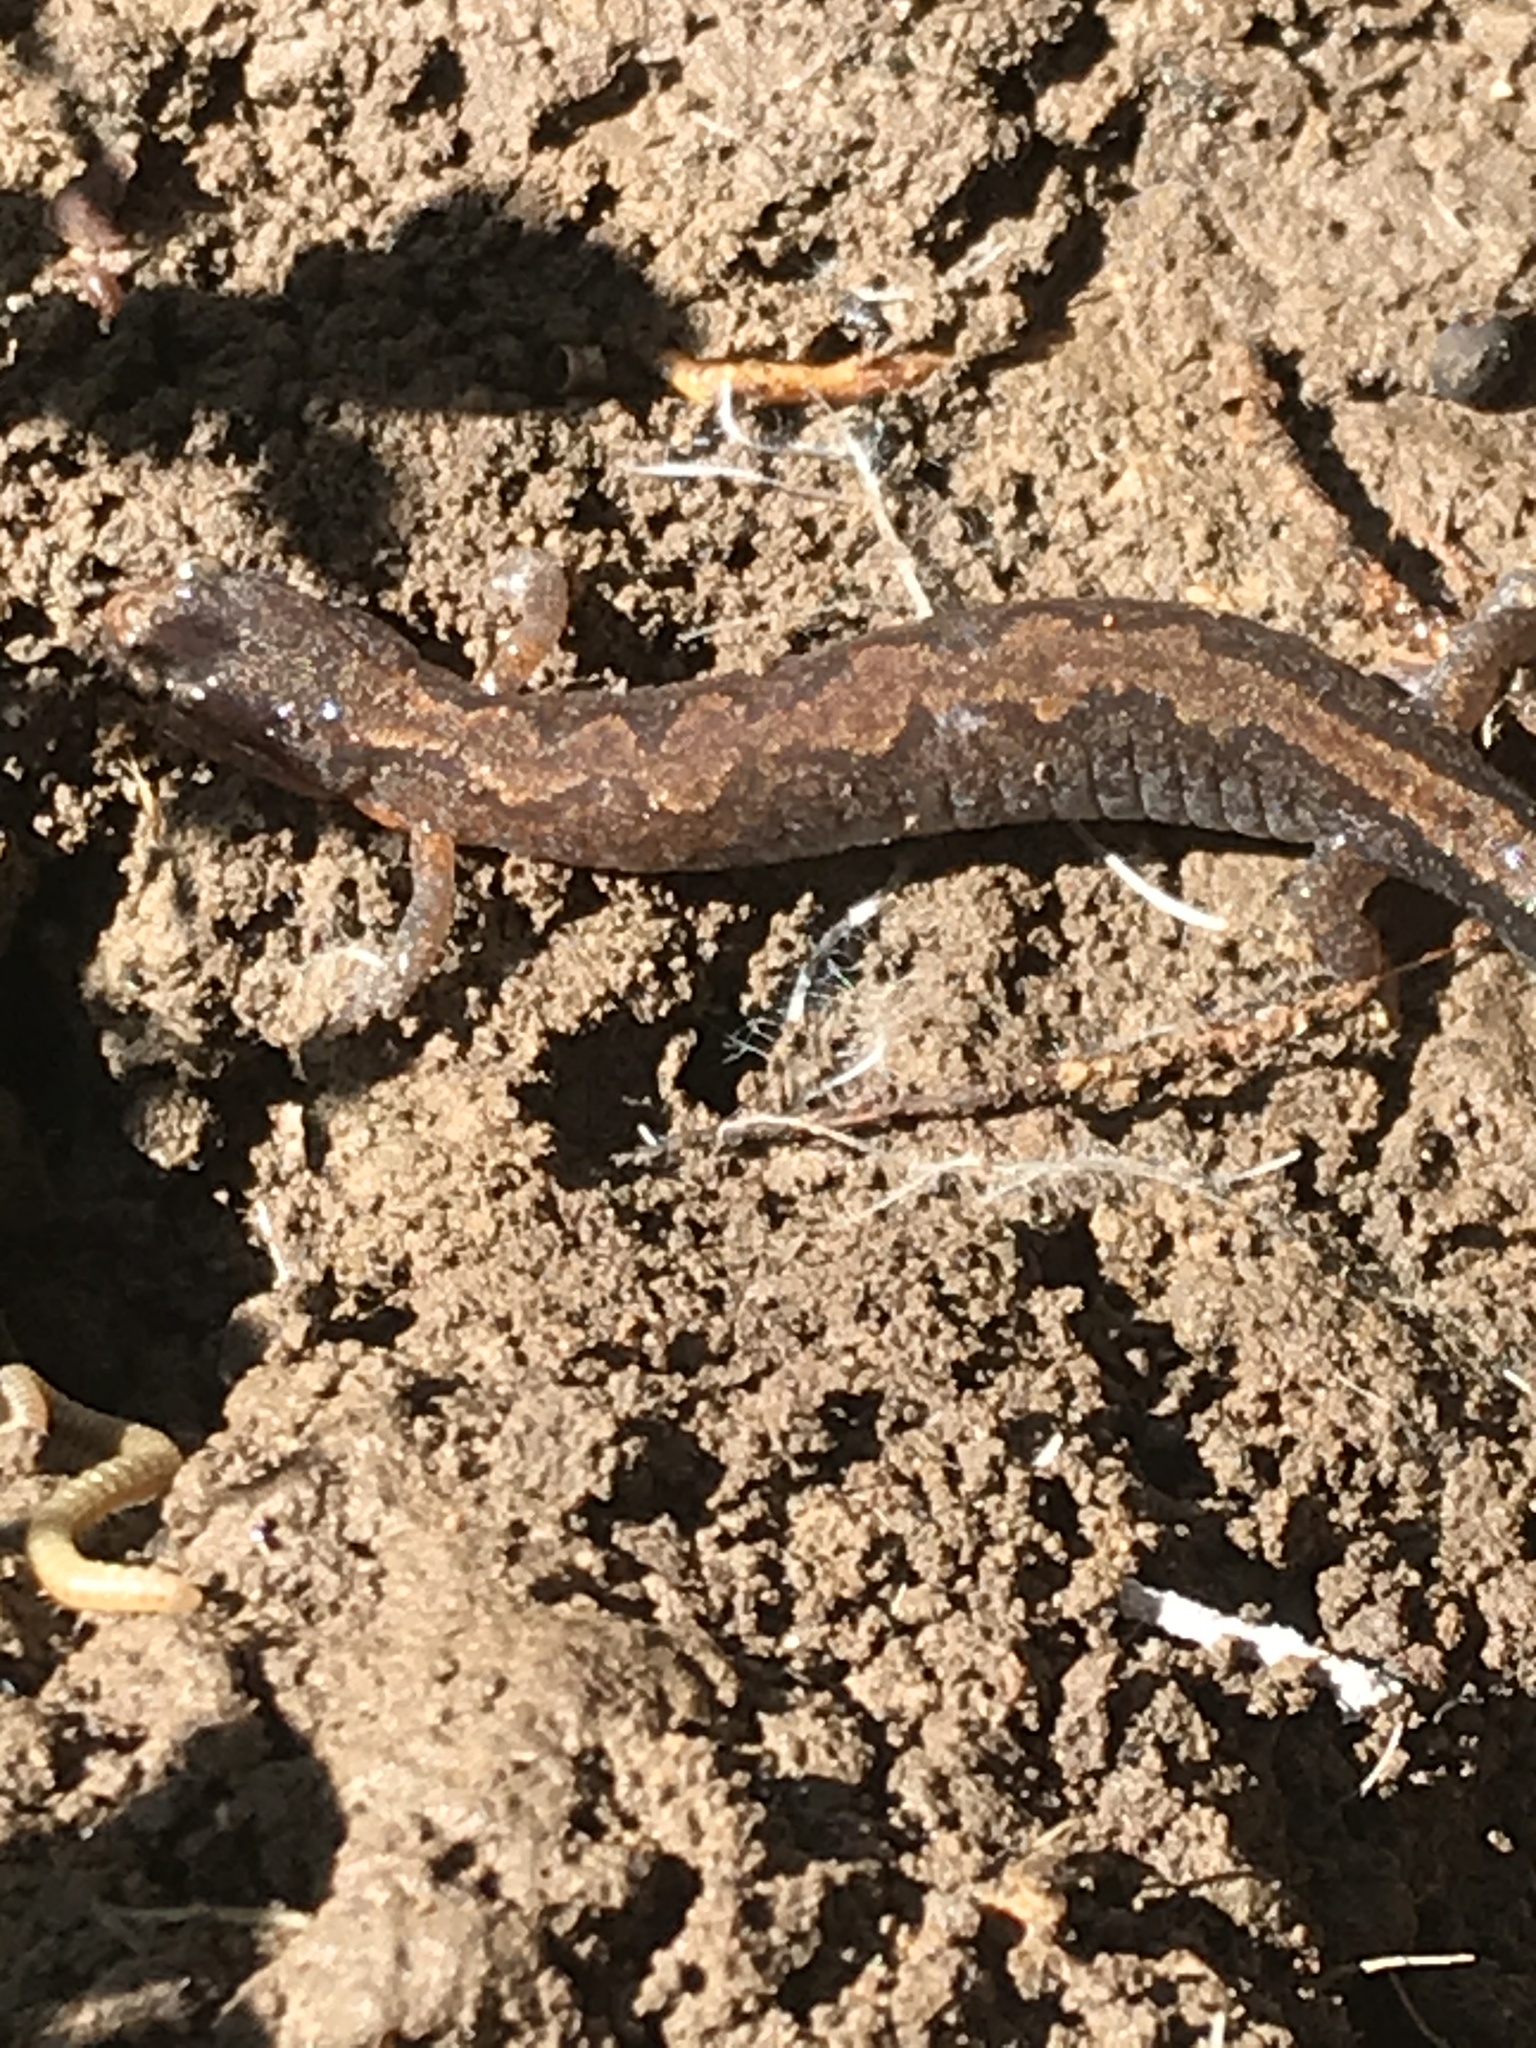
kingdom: Animalia
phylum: Chordata
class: Amphibia
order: Caudata
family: Plethodontidae
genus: Plethodon
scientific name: Plethodon dorsalis
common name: Northern zigzag salamander
